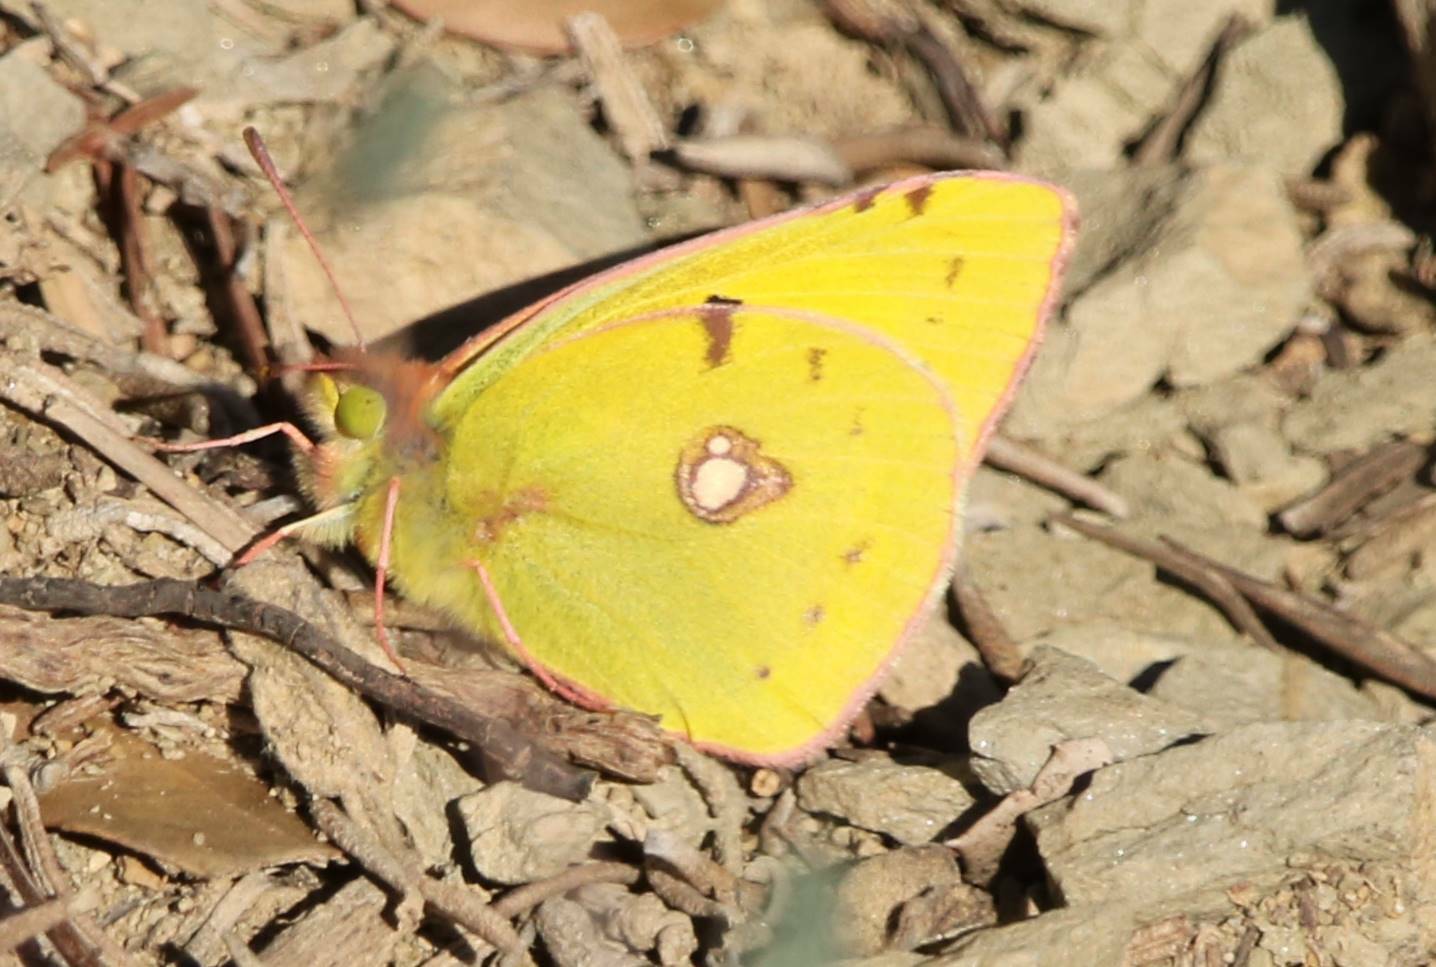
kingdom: Animalia
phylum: Arthropoda
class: Insecta
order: Lepidoptera
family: Pieridae
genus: Colias
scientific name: Colias croceus
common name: Clouded yellow
